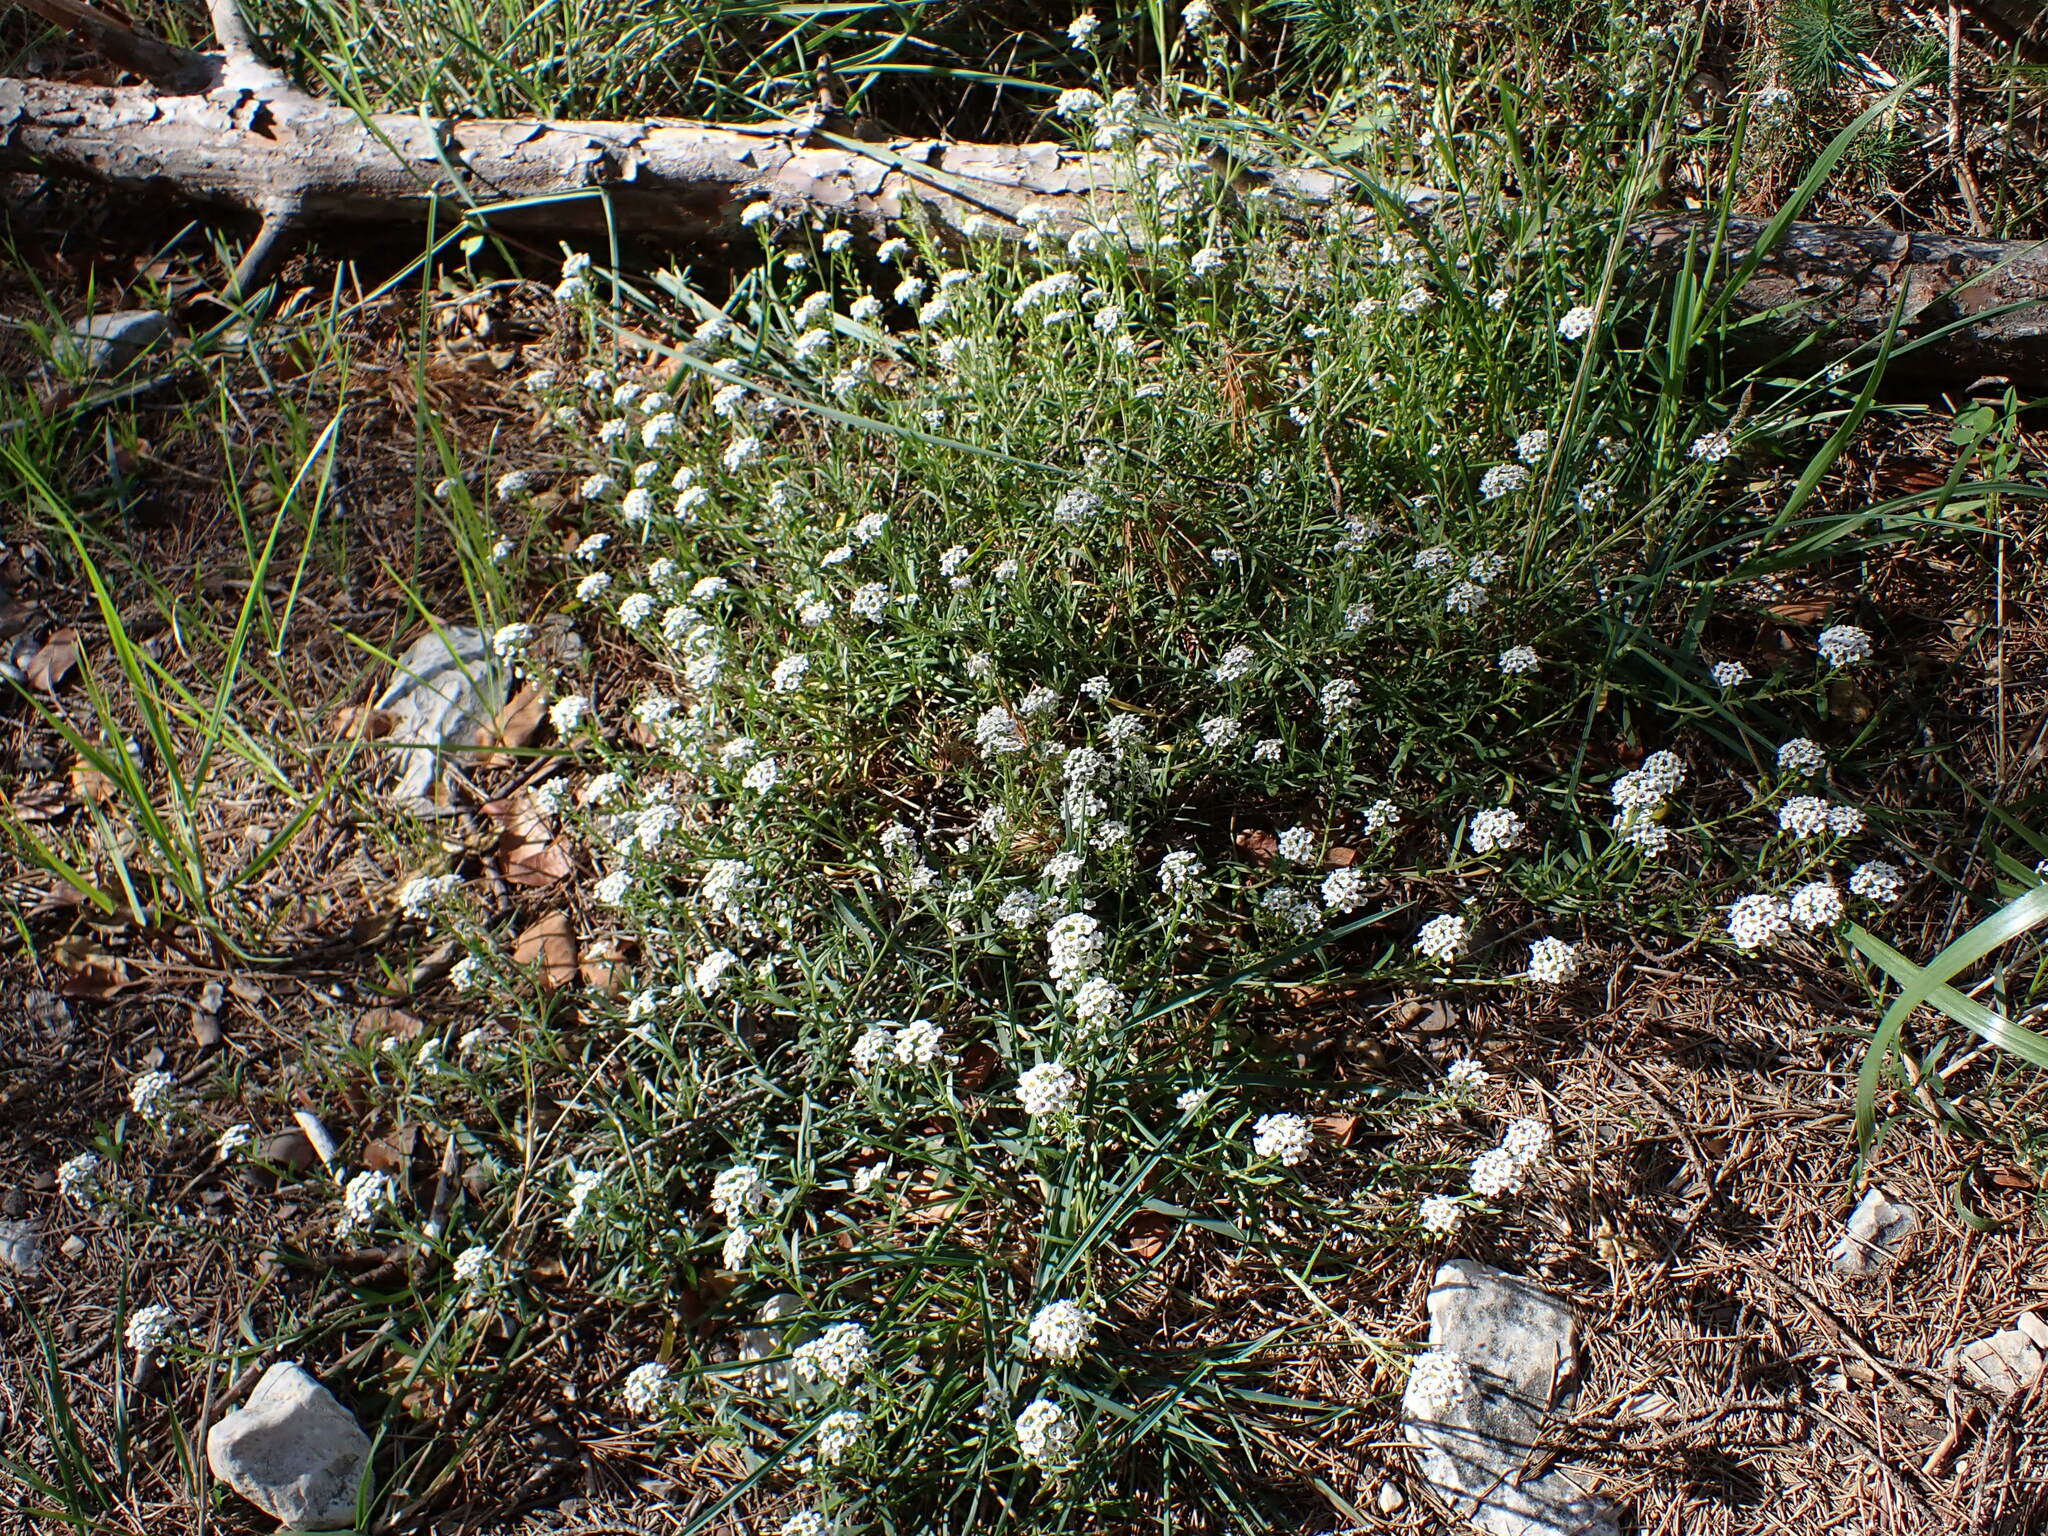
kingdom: Plantae
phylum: Tracheophyta
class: Magnoliopsida
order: Brassicales
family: Brassicaceae
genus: Lobularia
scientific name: Lobularia maritima
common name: Sweet alison
